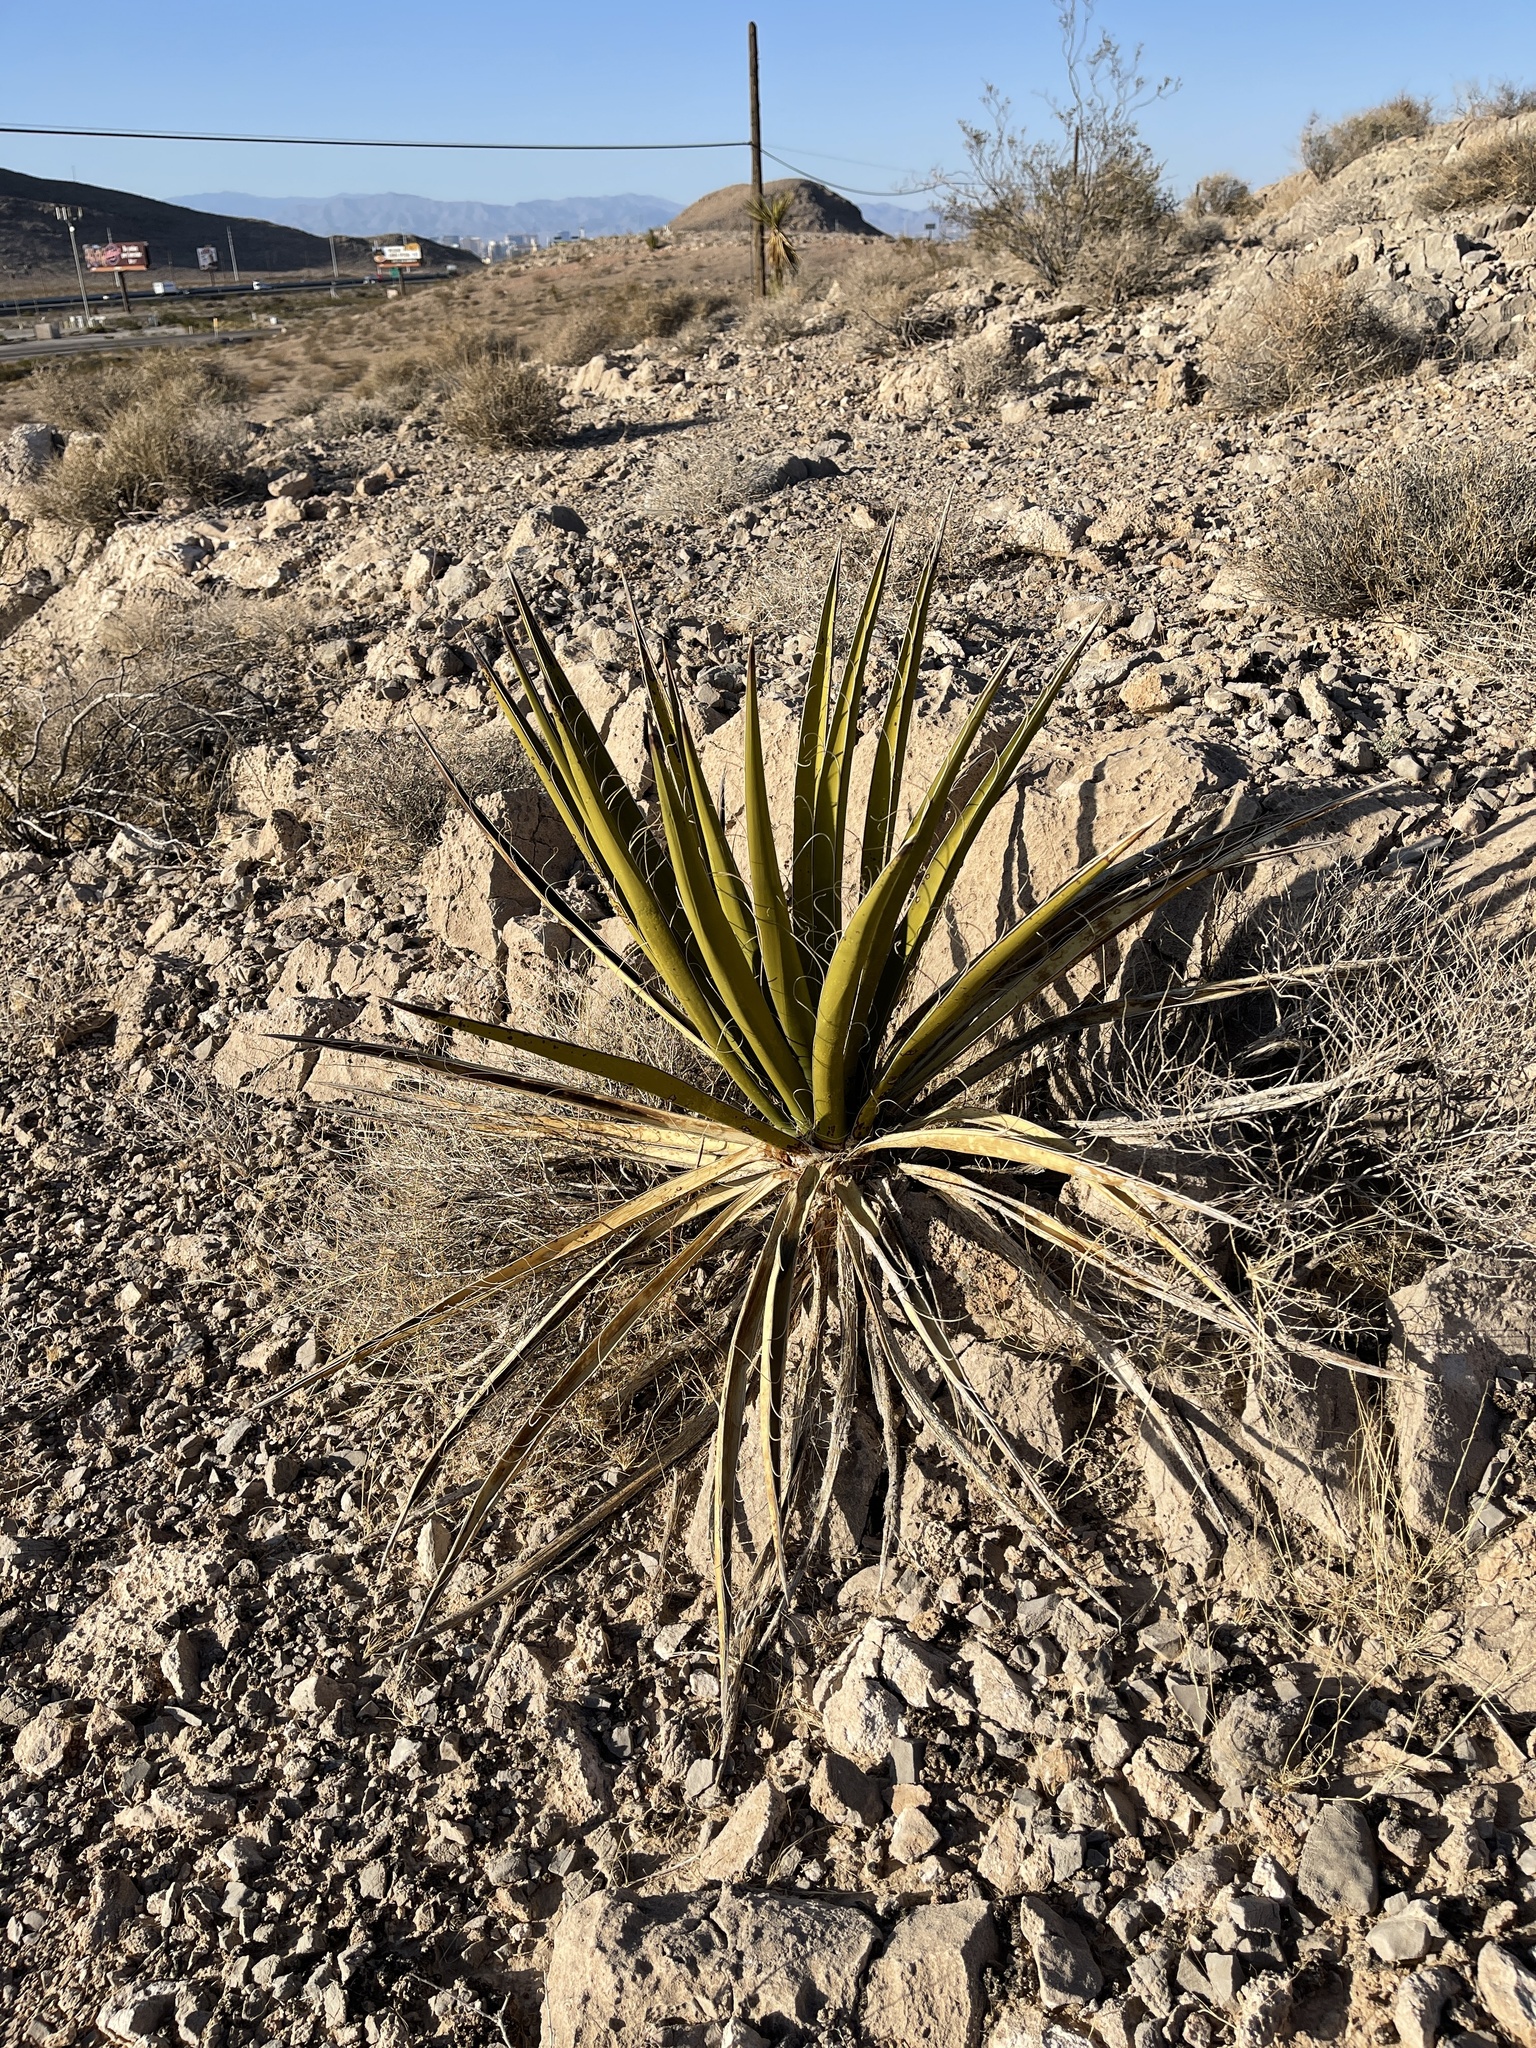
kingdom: Plantae
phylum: Tracheophyta
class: Liliopsida
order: Asparagales
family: Asparagaceae
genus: Yucca
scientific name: Yucca schidigera
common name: Mojave yucca
